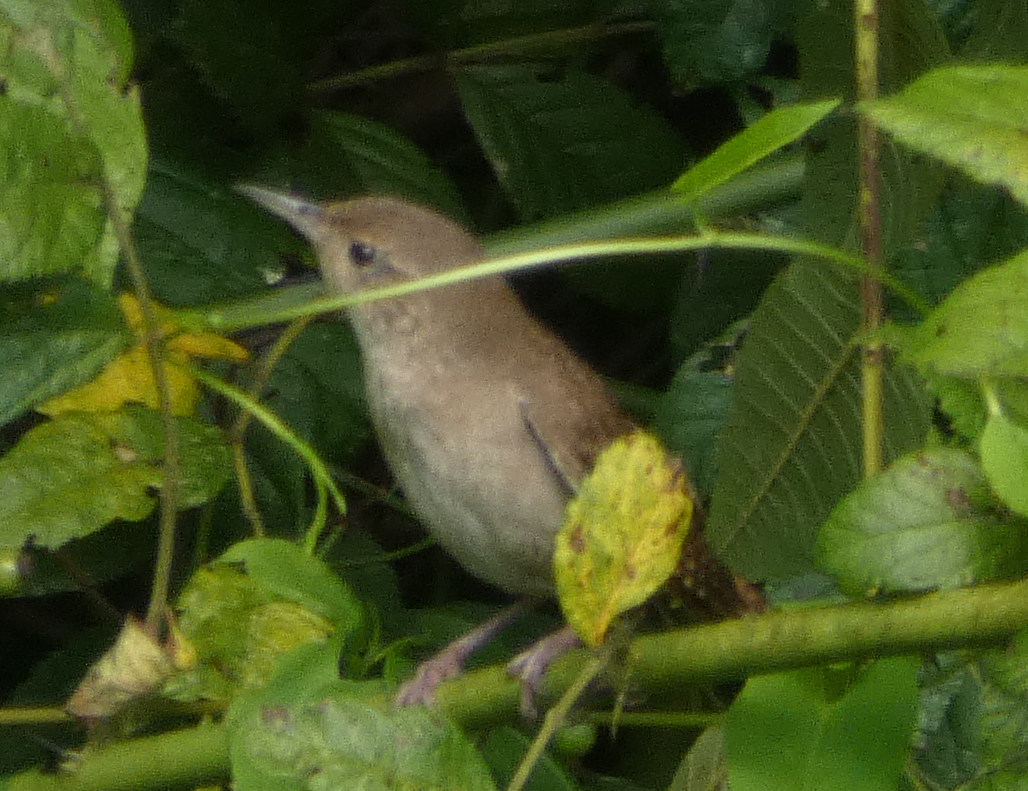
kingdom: Animalia
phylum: Chordata
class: Aves
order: Passeriformes
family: Troglodytidae
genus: Troglodytes
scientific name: Troglodytes aedon
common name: House wren
